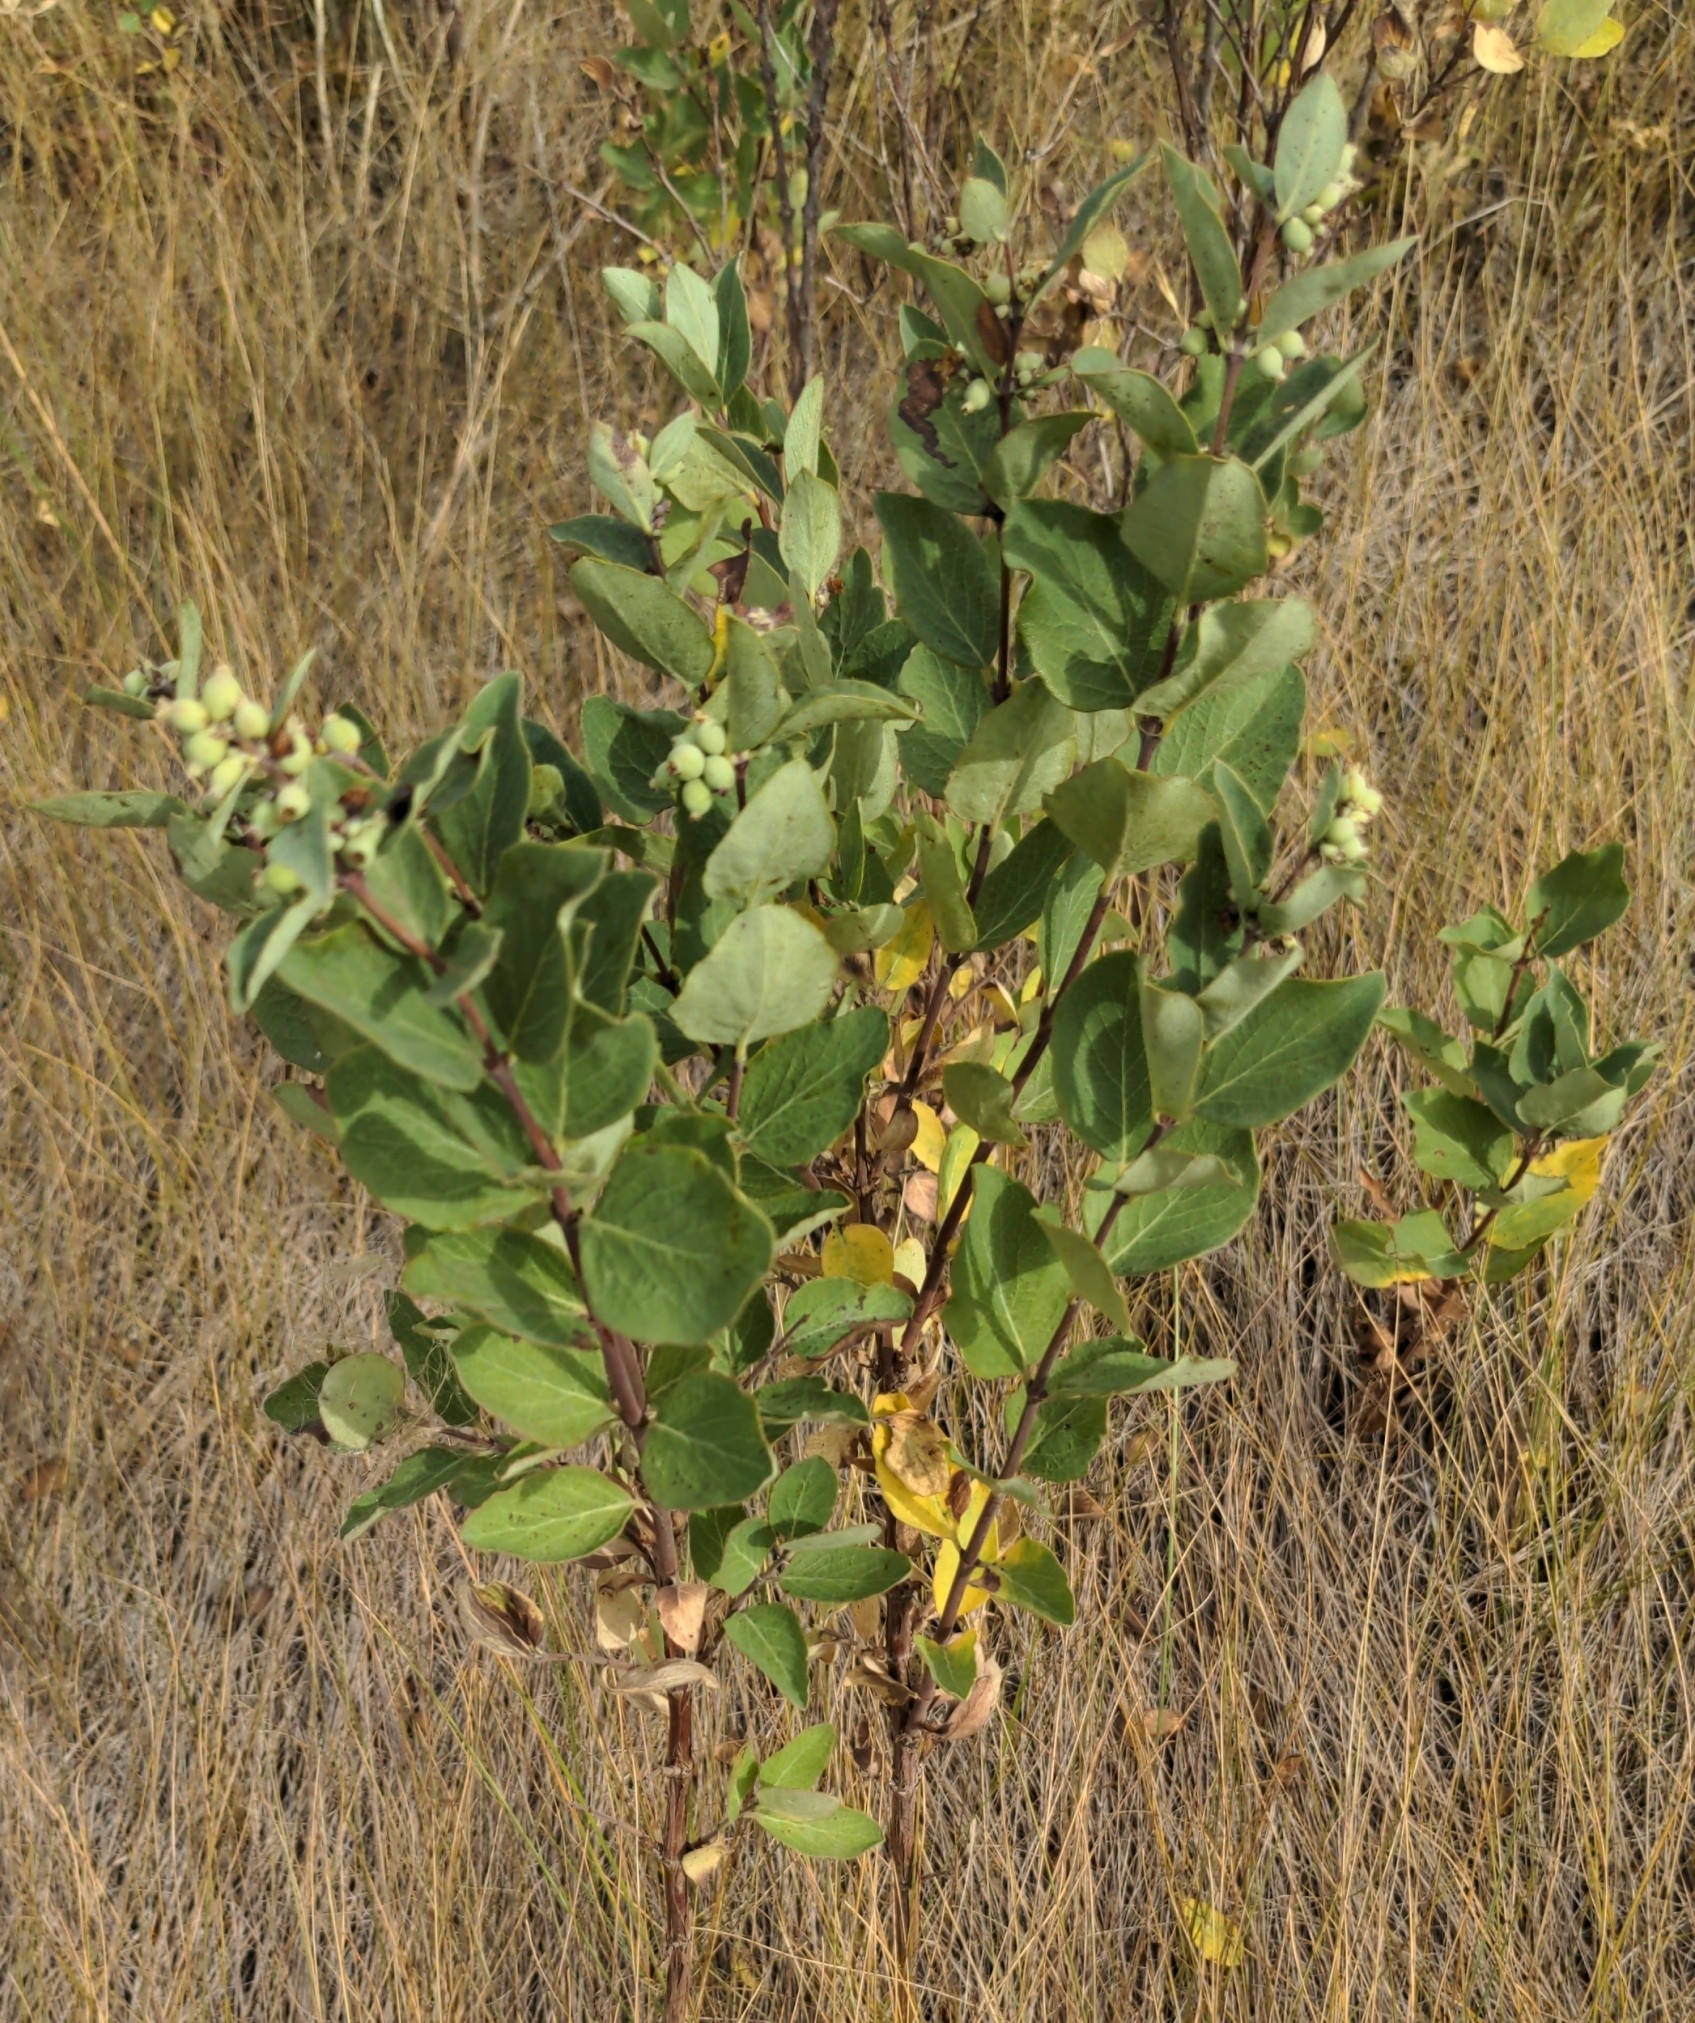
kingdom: Plantae
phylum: Tracheophyta
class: Magnoliopsida
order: Dipsacales
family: Caprifoliaceae
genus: Symphoricarpos
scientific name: Symphoricarpos occidentalis
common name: Wolfberry
